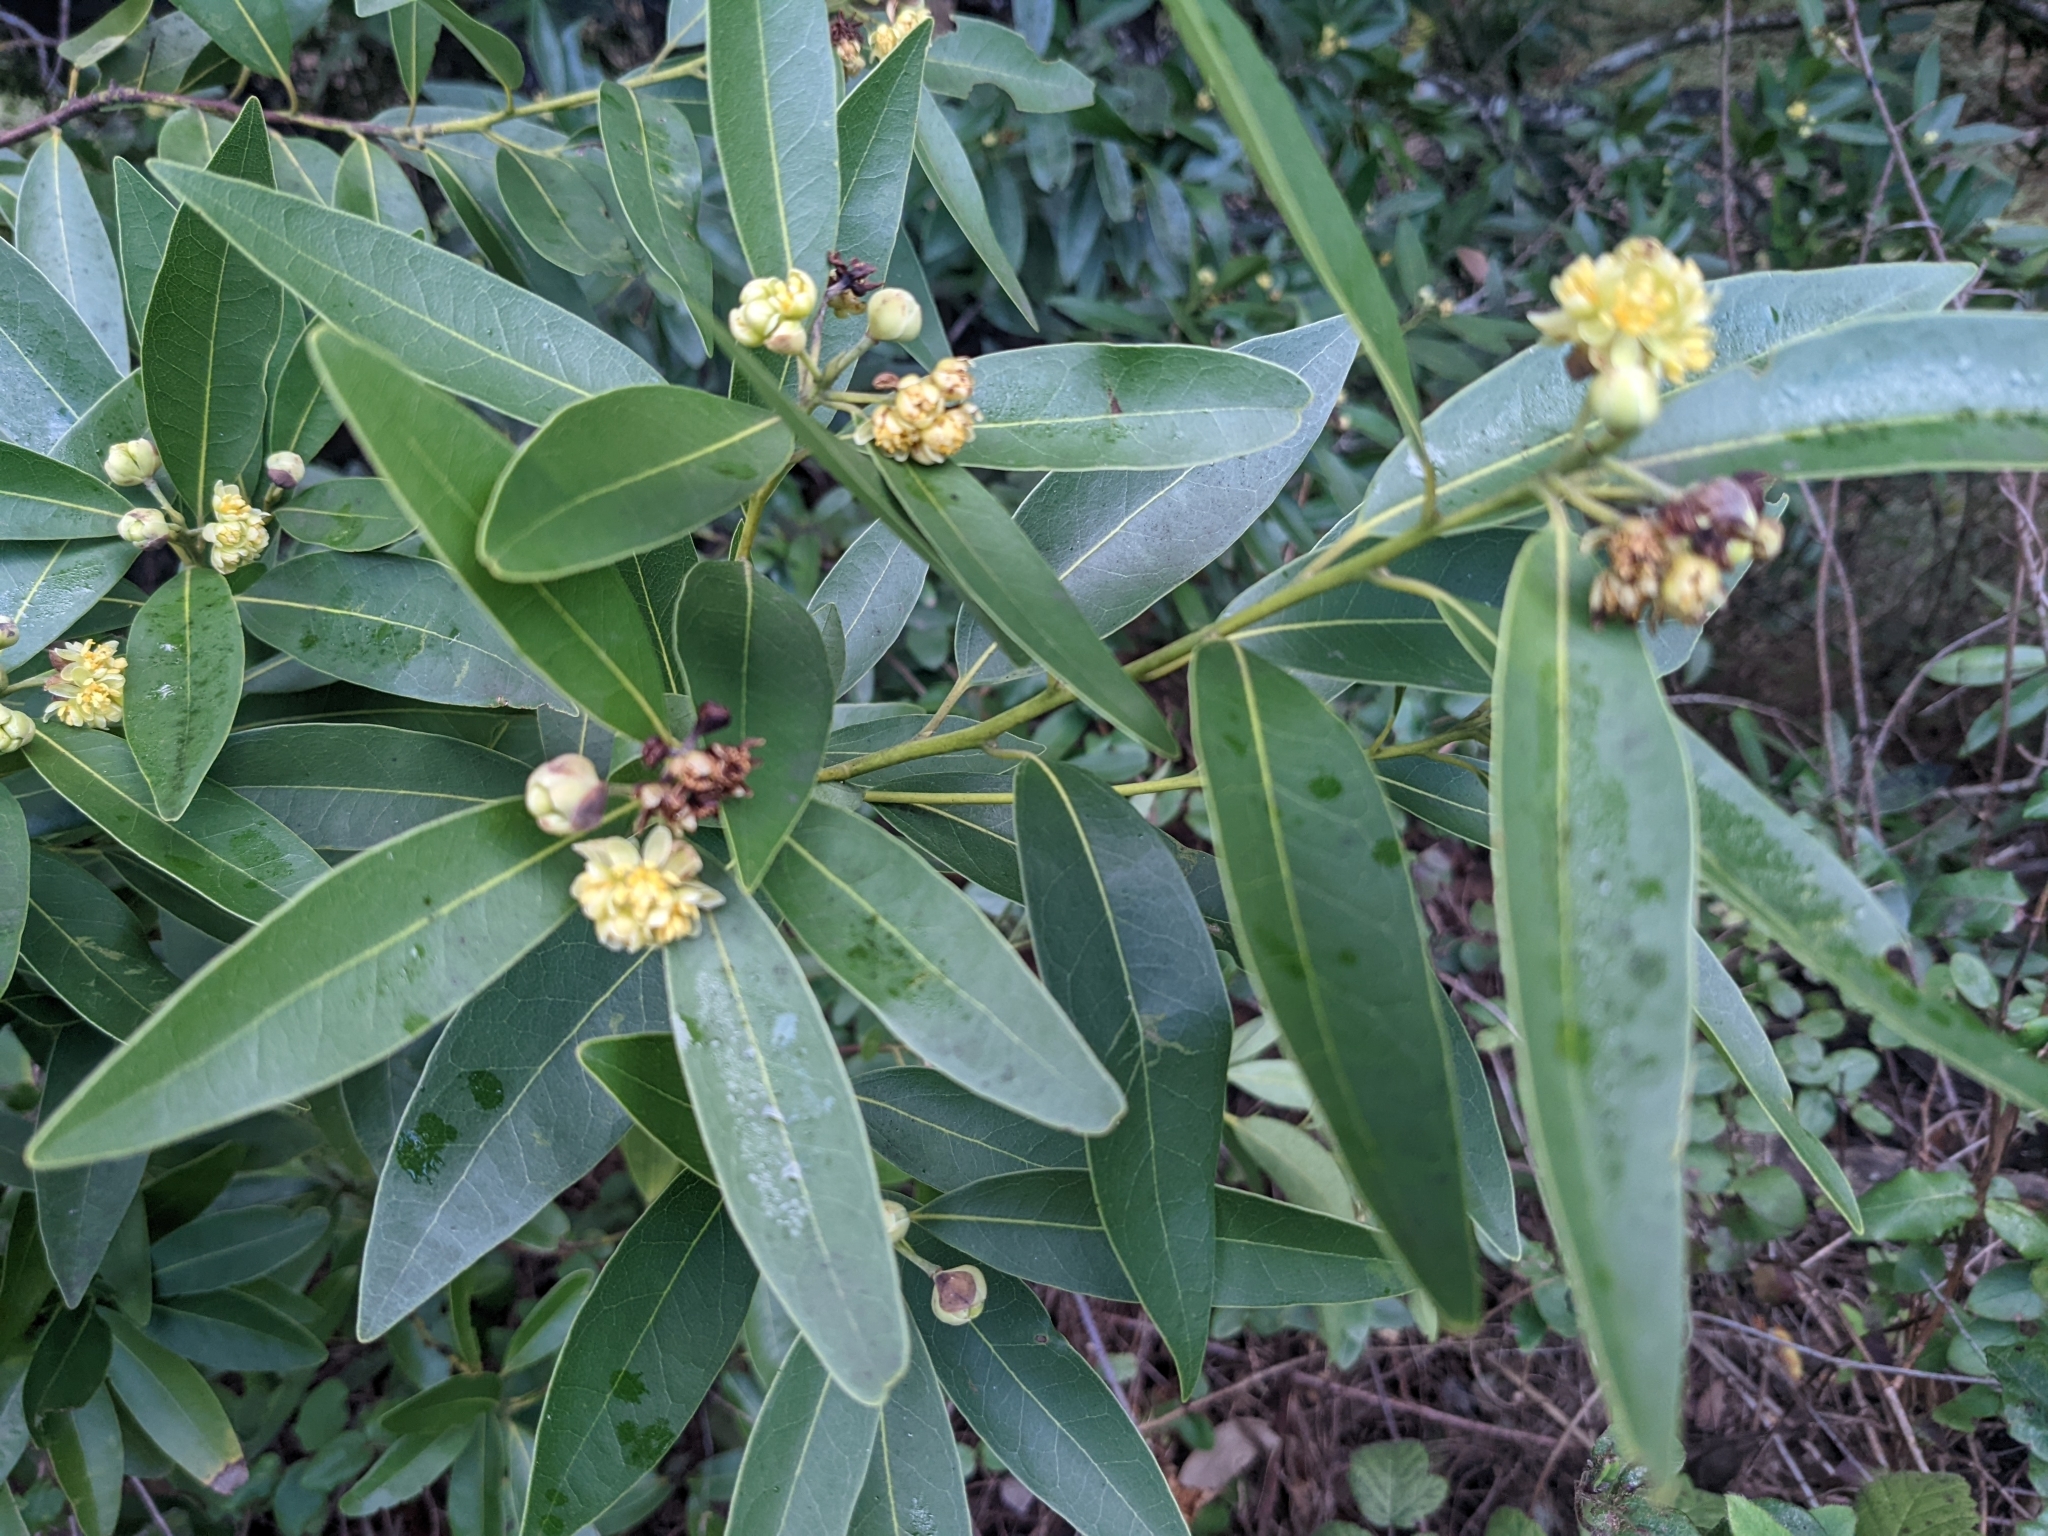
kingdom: Plantae
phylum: Tracheophyta
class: Magnoliopsida
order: Laurales
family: Lauraceae
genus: Umbellularia
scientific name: Umbellularia californica
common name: California bay
